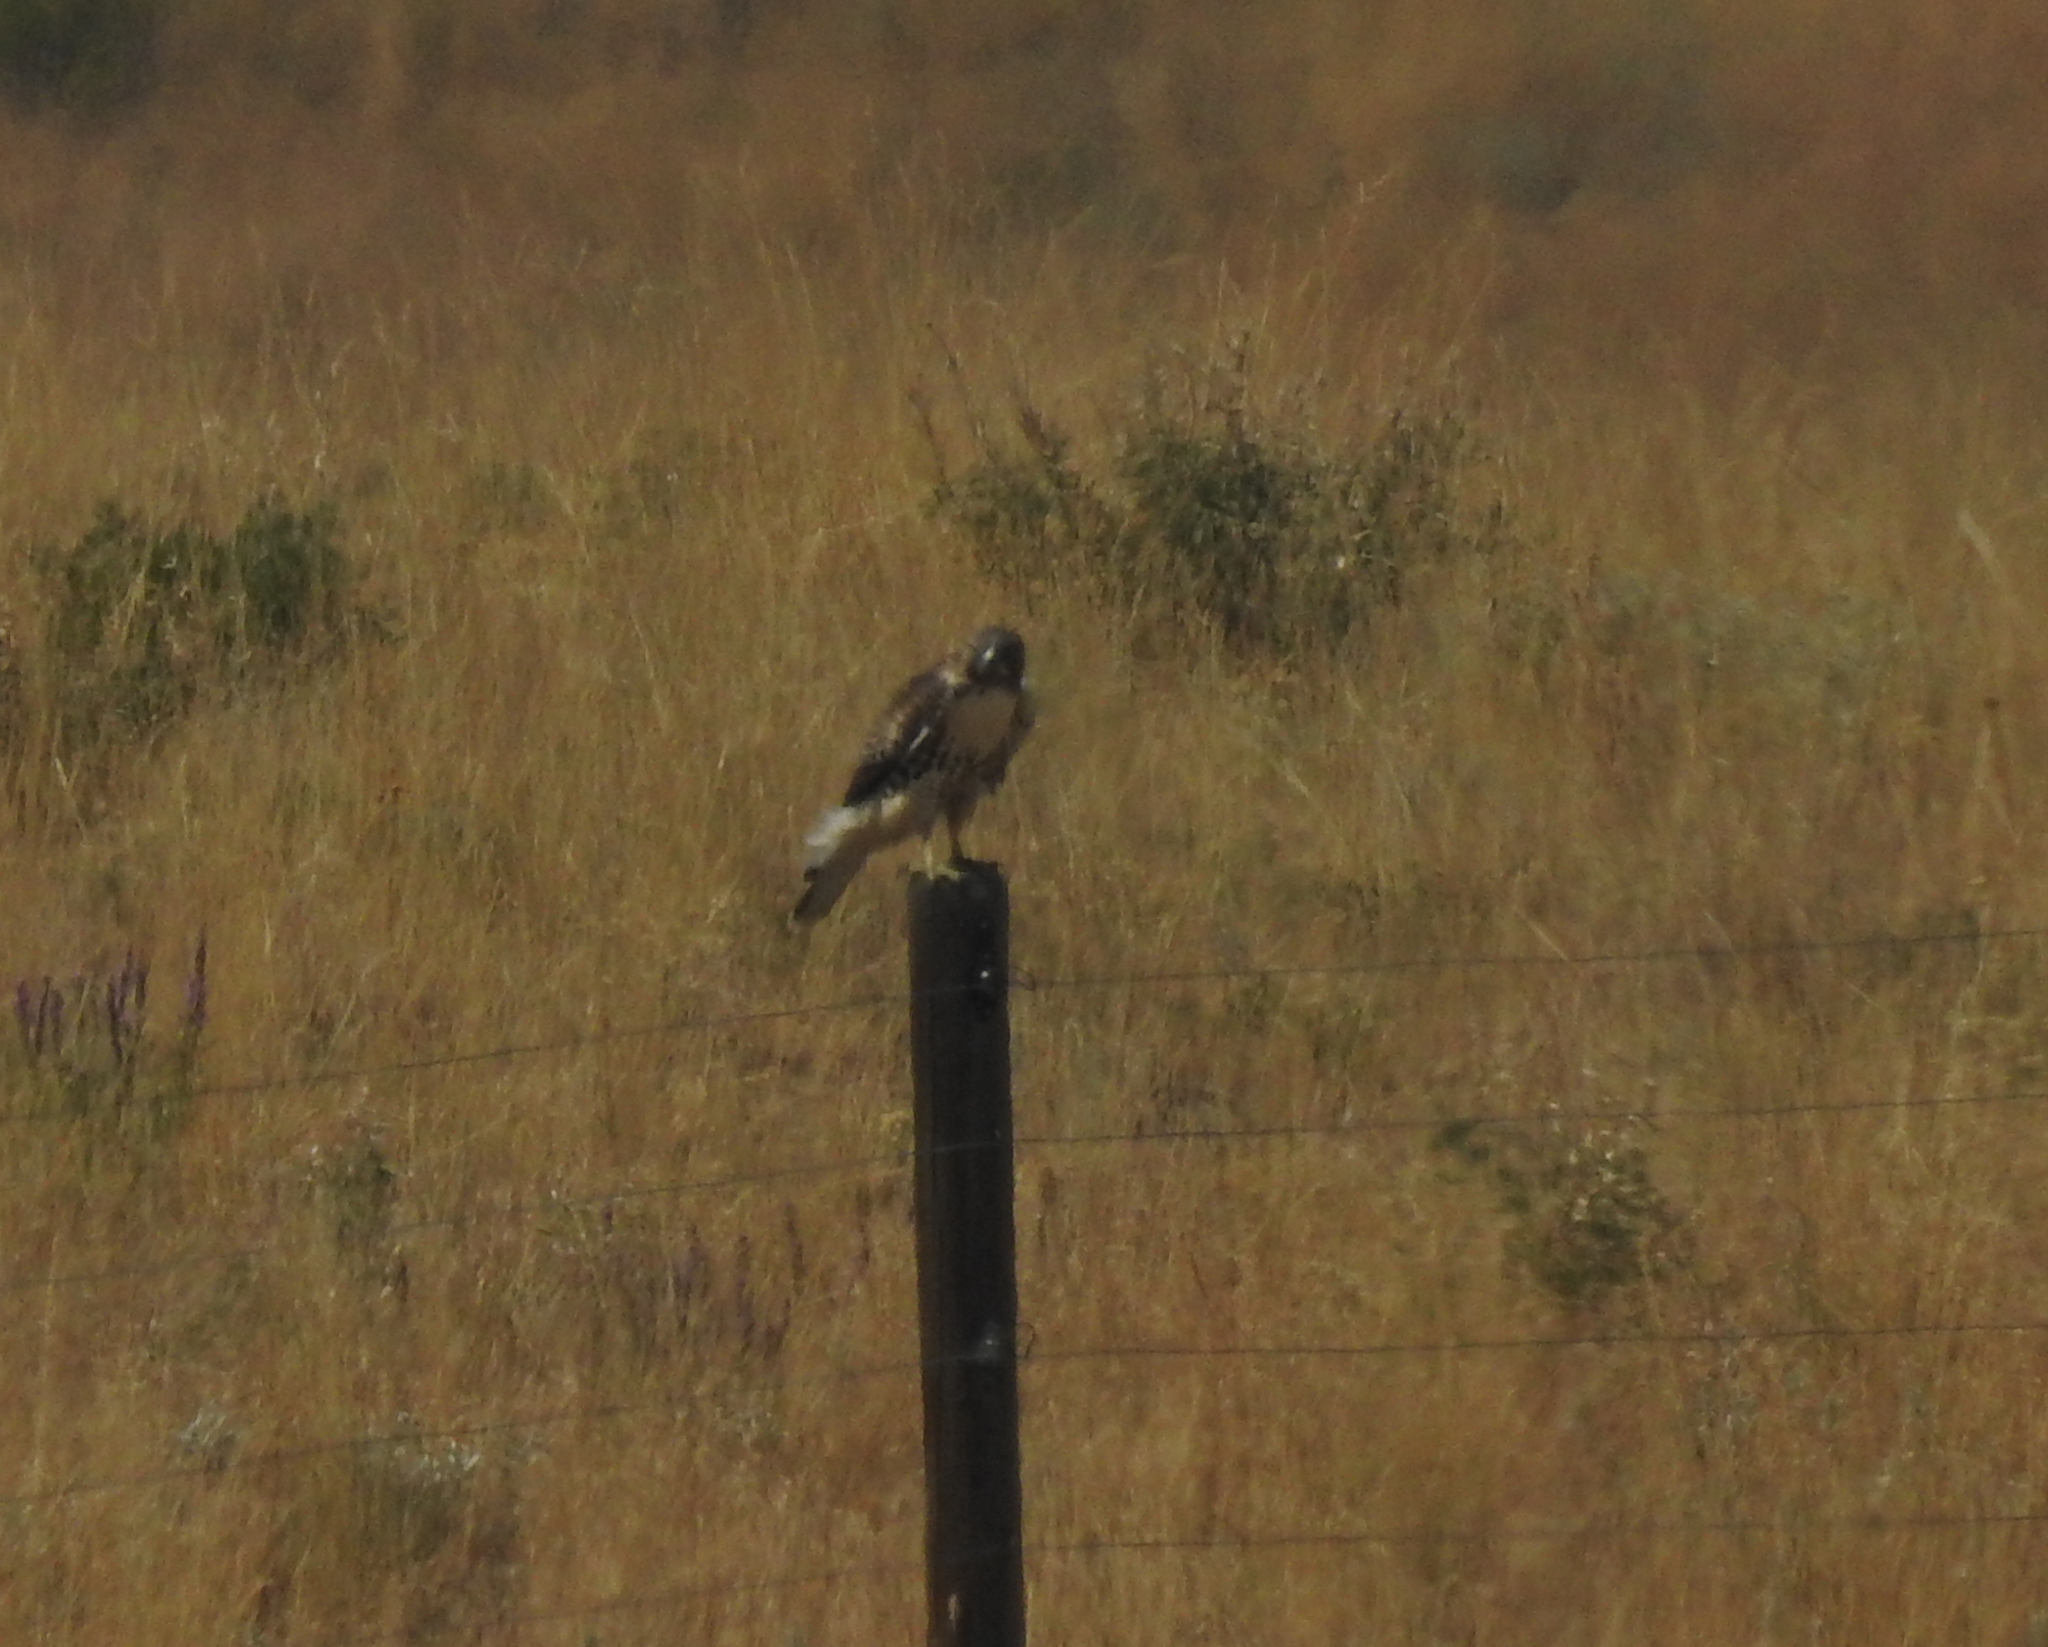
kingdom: Animalia
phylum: Chordata
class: Aves
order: Accipitriformes
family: Accipitridae
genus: Buteo
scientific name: Buteo jamaicensis
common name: Red-tailed hawk
